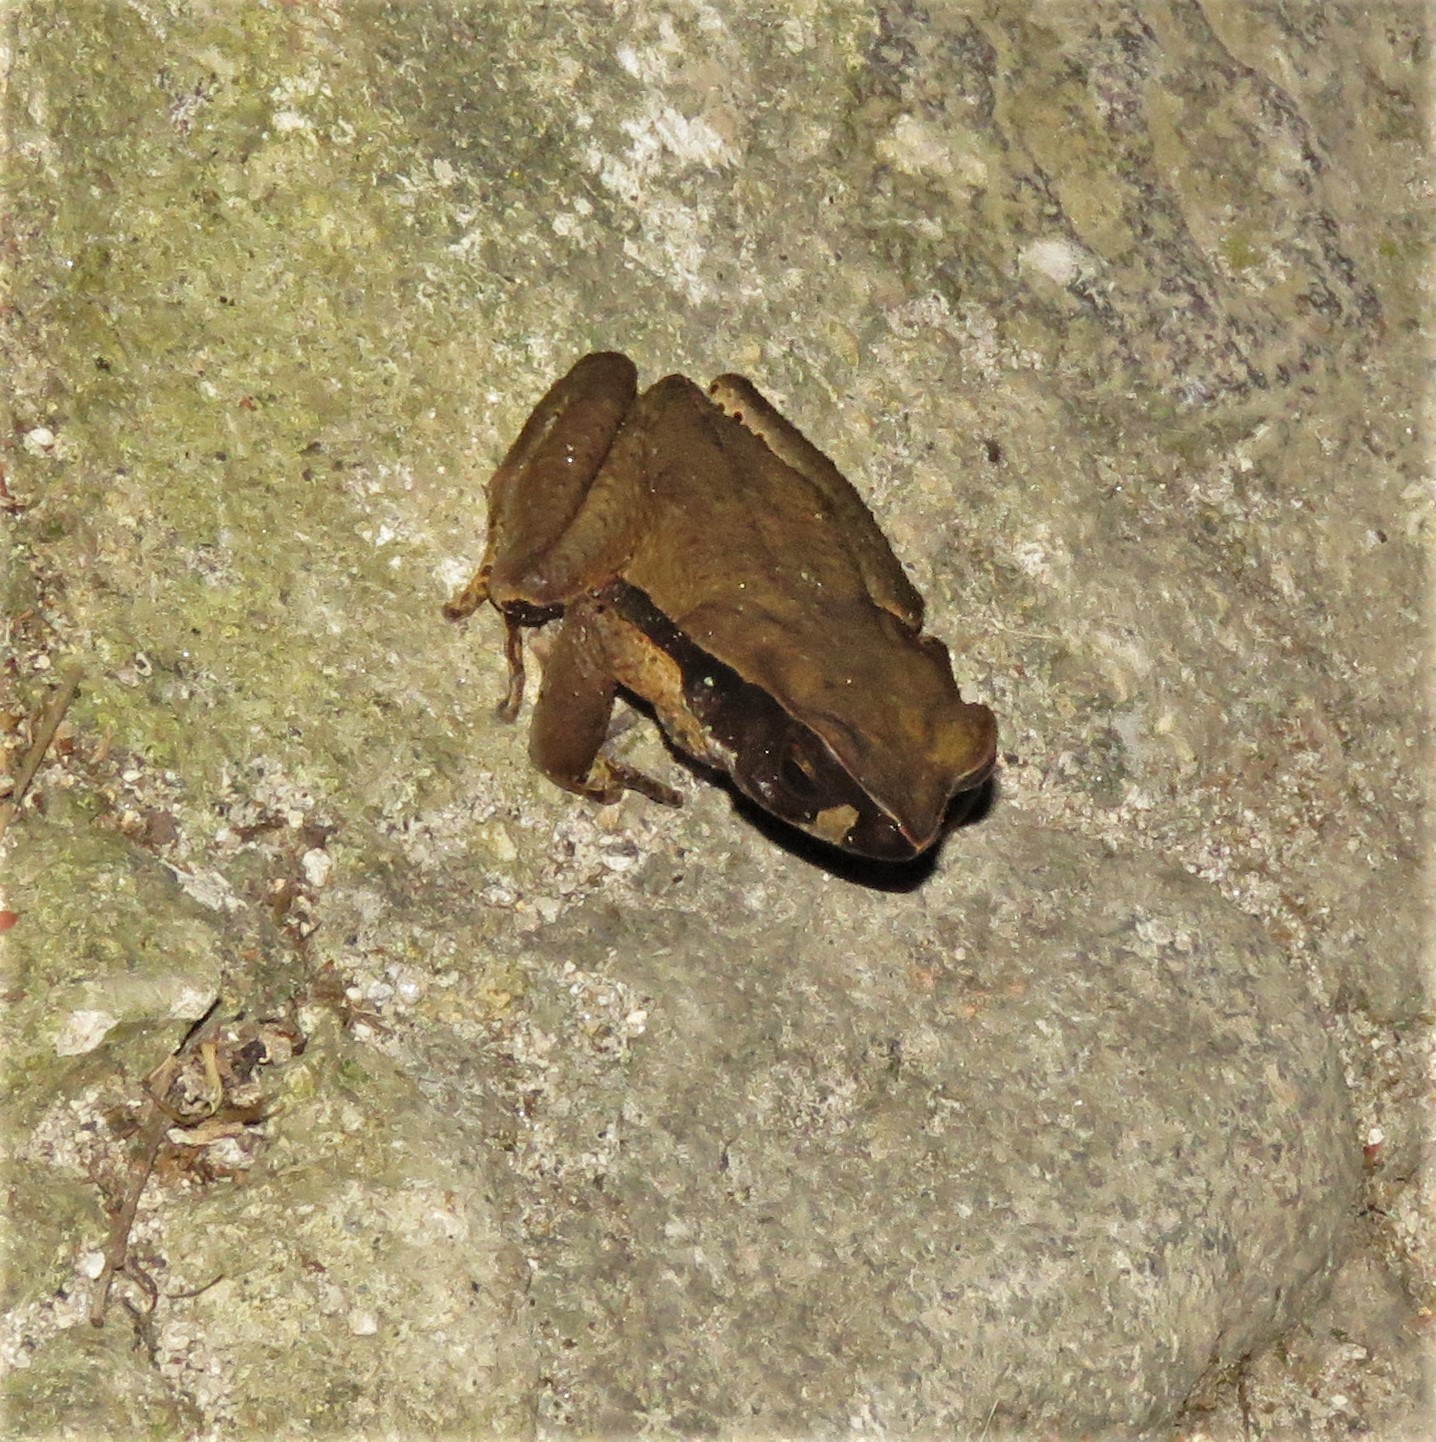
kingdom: Animalia
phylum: Chordata
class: Amphibia
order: Anura
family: Bufonidae
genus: Rhaebo
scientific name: Rhaebo haematiticus
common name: Truando toad
